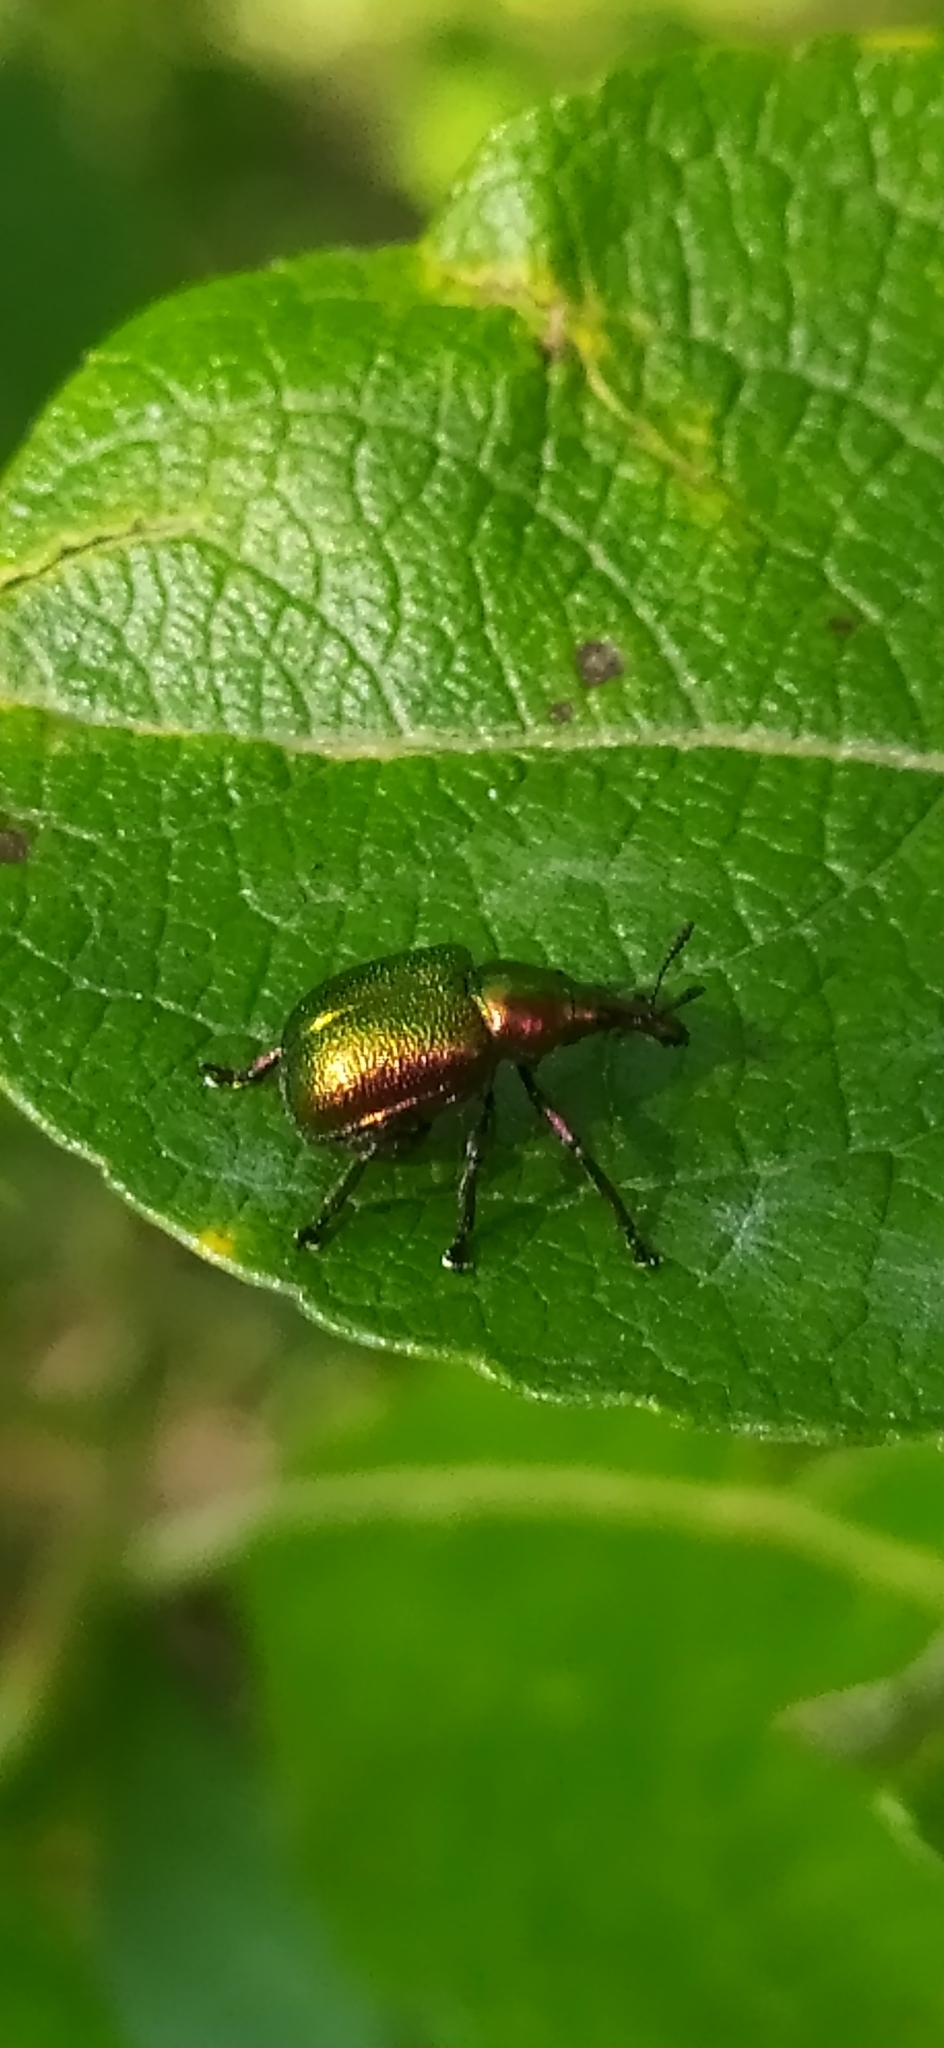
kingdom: Animalia
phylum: Arthropoda
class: Insecta
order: Coleoptera
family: Attelabidae
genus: Byctiscus
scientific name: Byctiscus populi
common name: Leaf-rolling weevil
